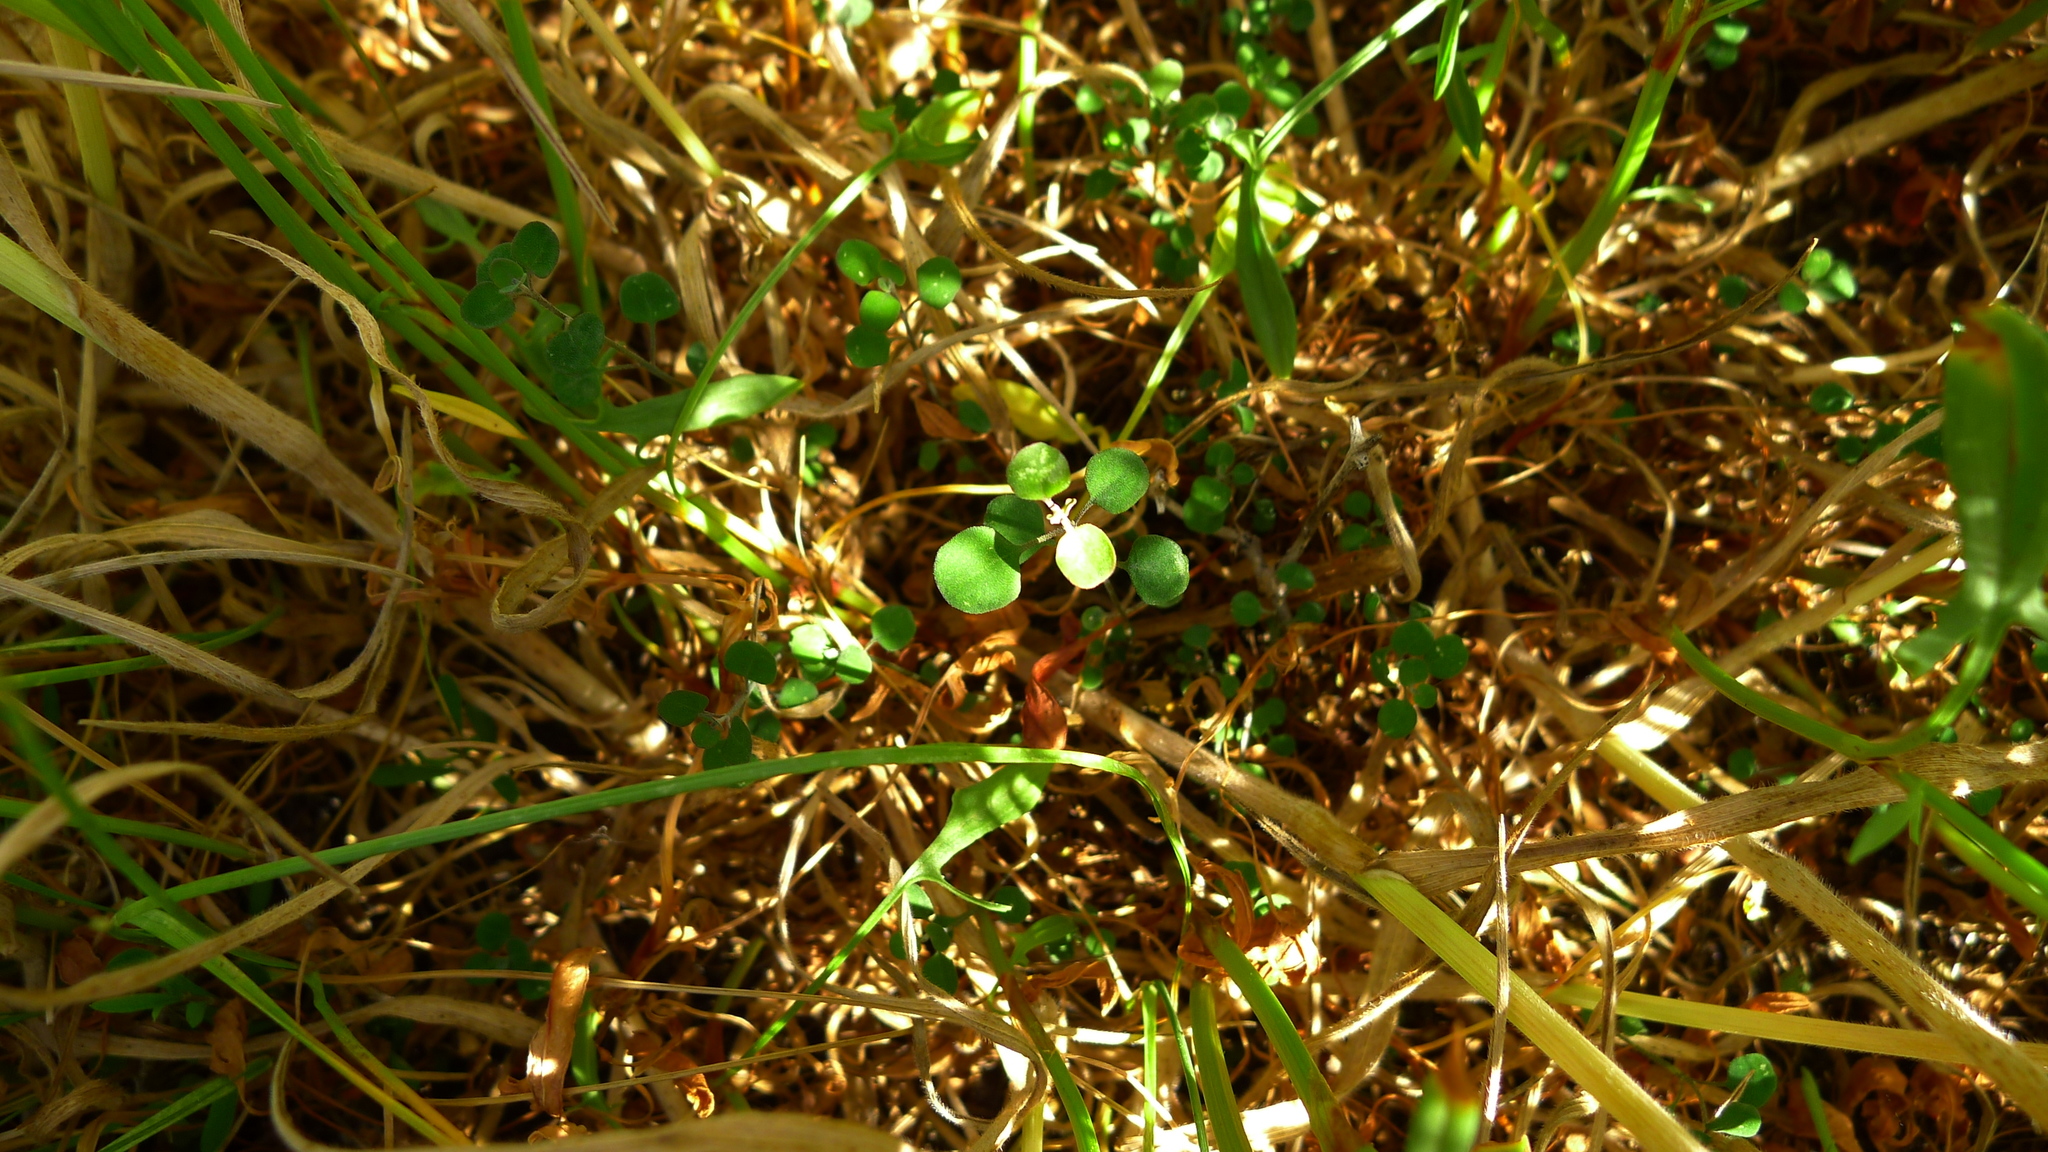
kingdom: Plantae
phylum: Tracheophyta
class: Magnoliopsida
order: Caryophyllales
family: Amaranthaceae
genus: Chenopodium
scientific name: Chenopodium allanii
